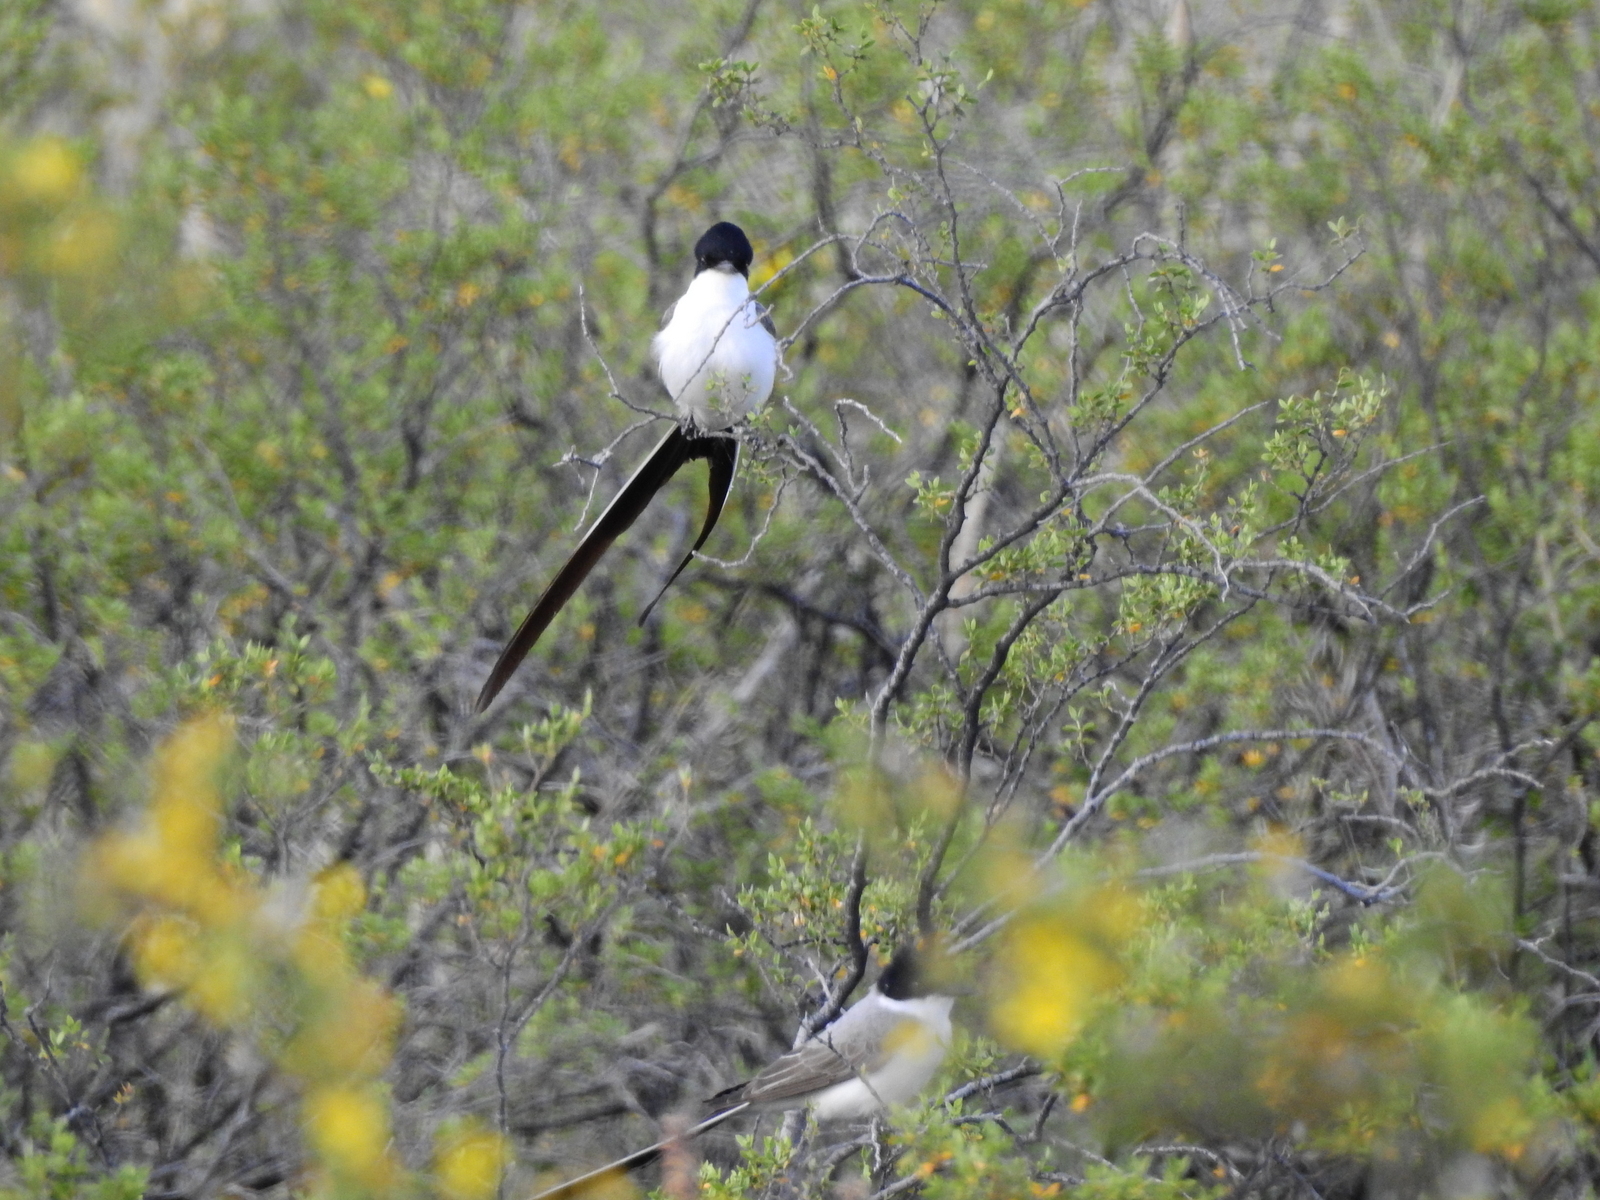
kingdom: Animalia
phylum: Chordata
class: Aves
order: Passeriformes
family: Tyrannidae
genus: Tyrannus
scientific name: Tyrannus savana
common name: Fork-tailed flycatcher
